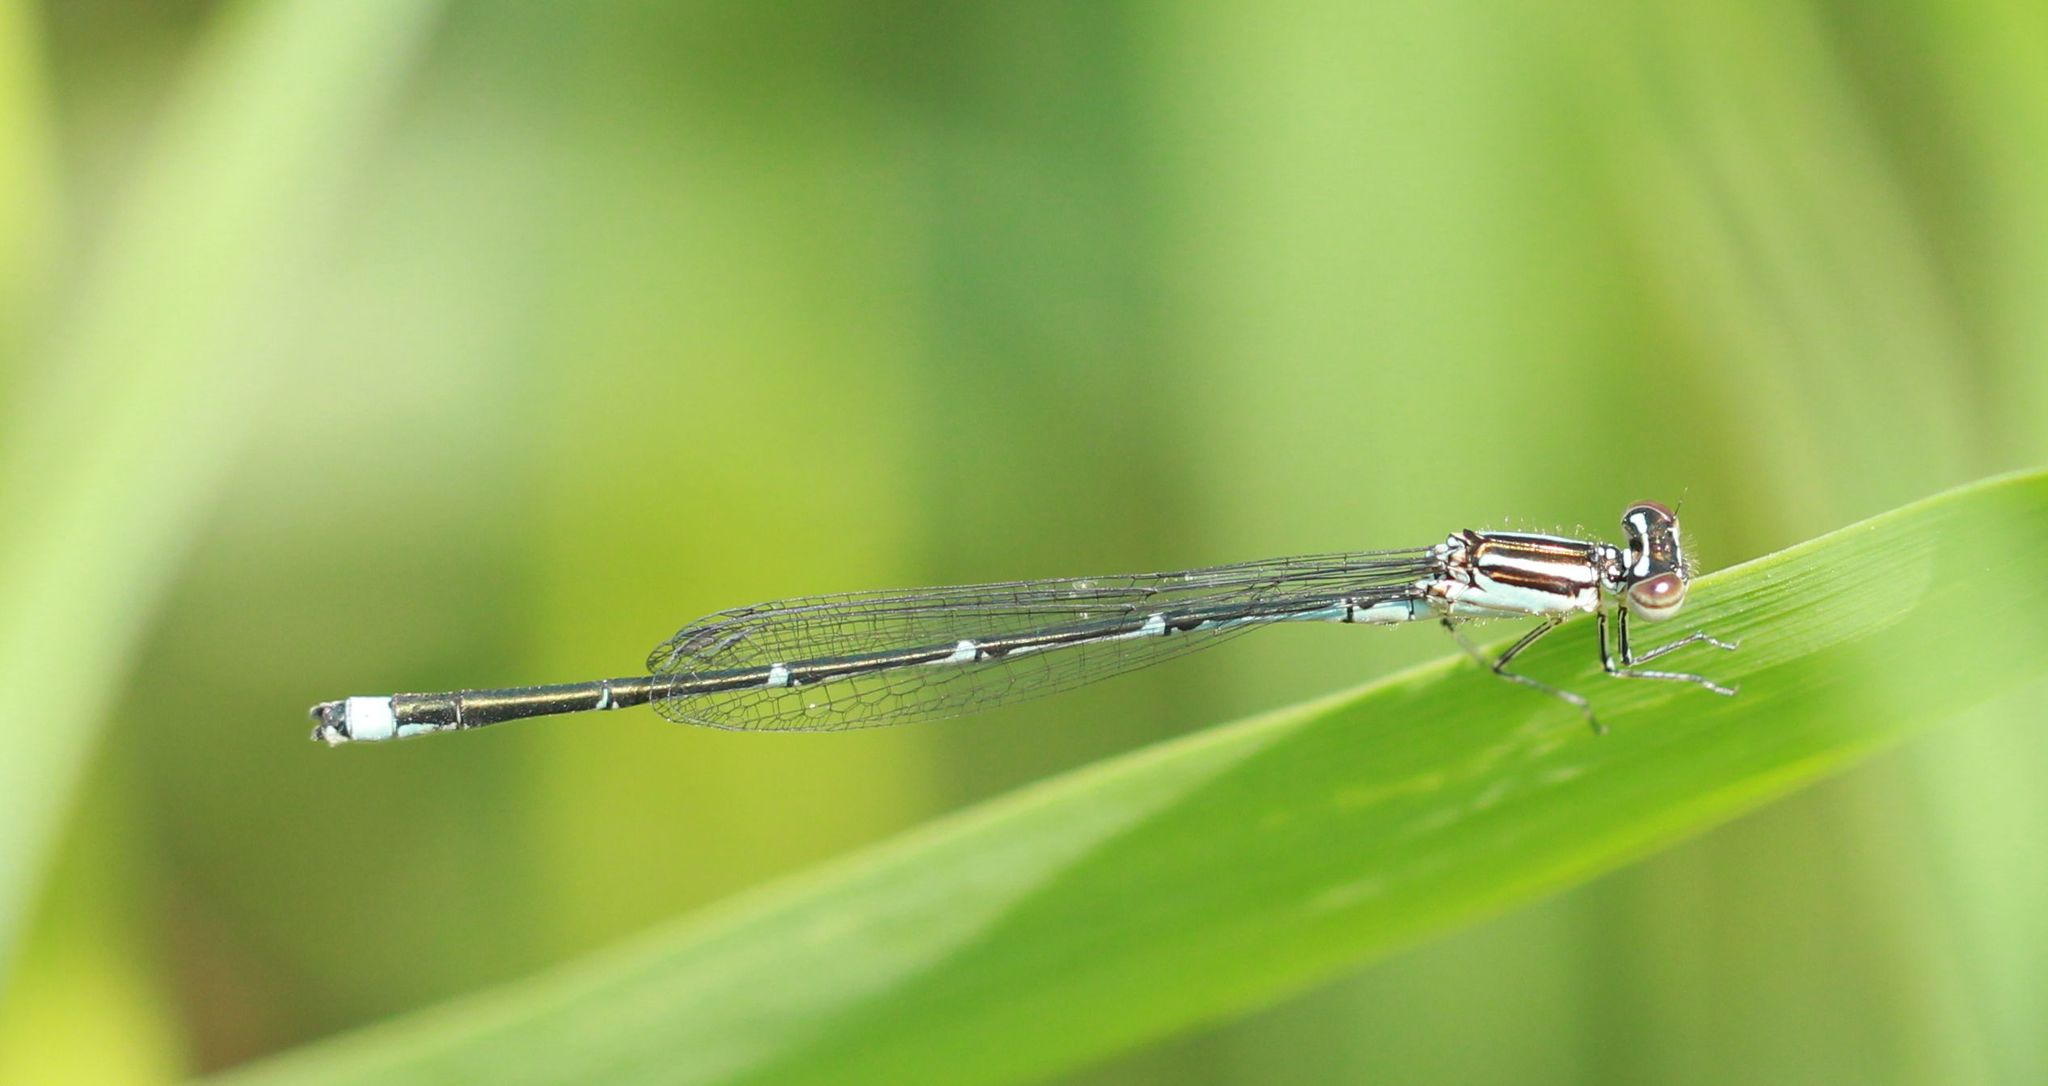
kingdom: Animalia
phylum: Arthropoda
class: Insecta
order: Odonata
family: Coenagrionidae
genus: Enallagma
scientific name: Enallagma exsulans
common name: Stream bluet
